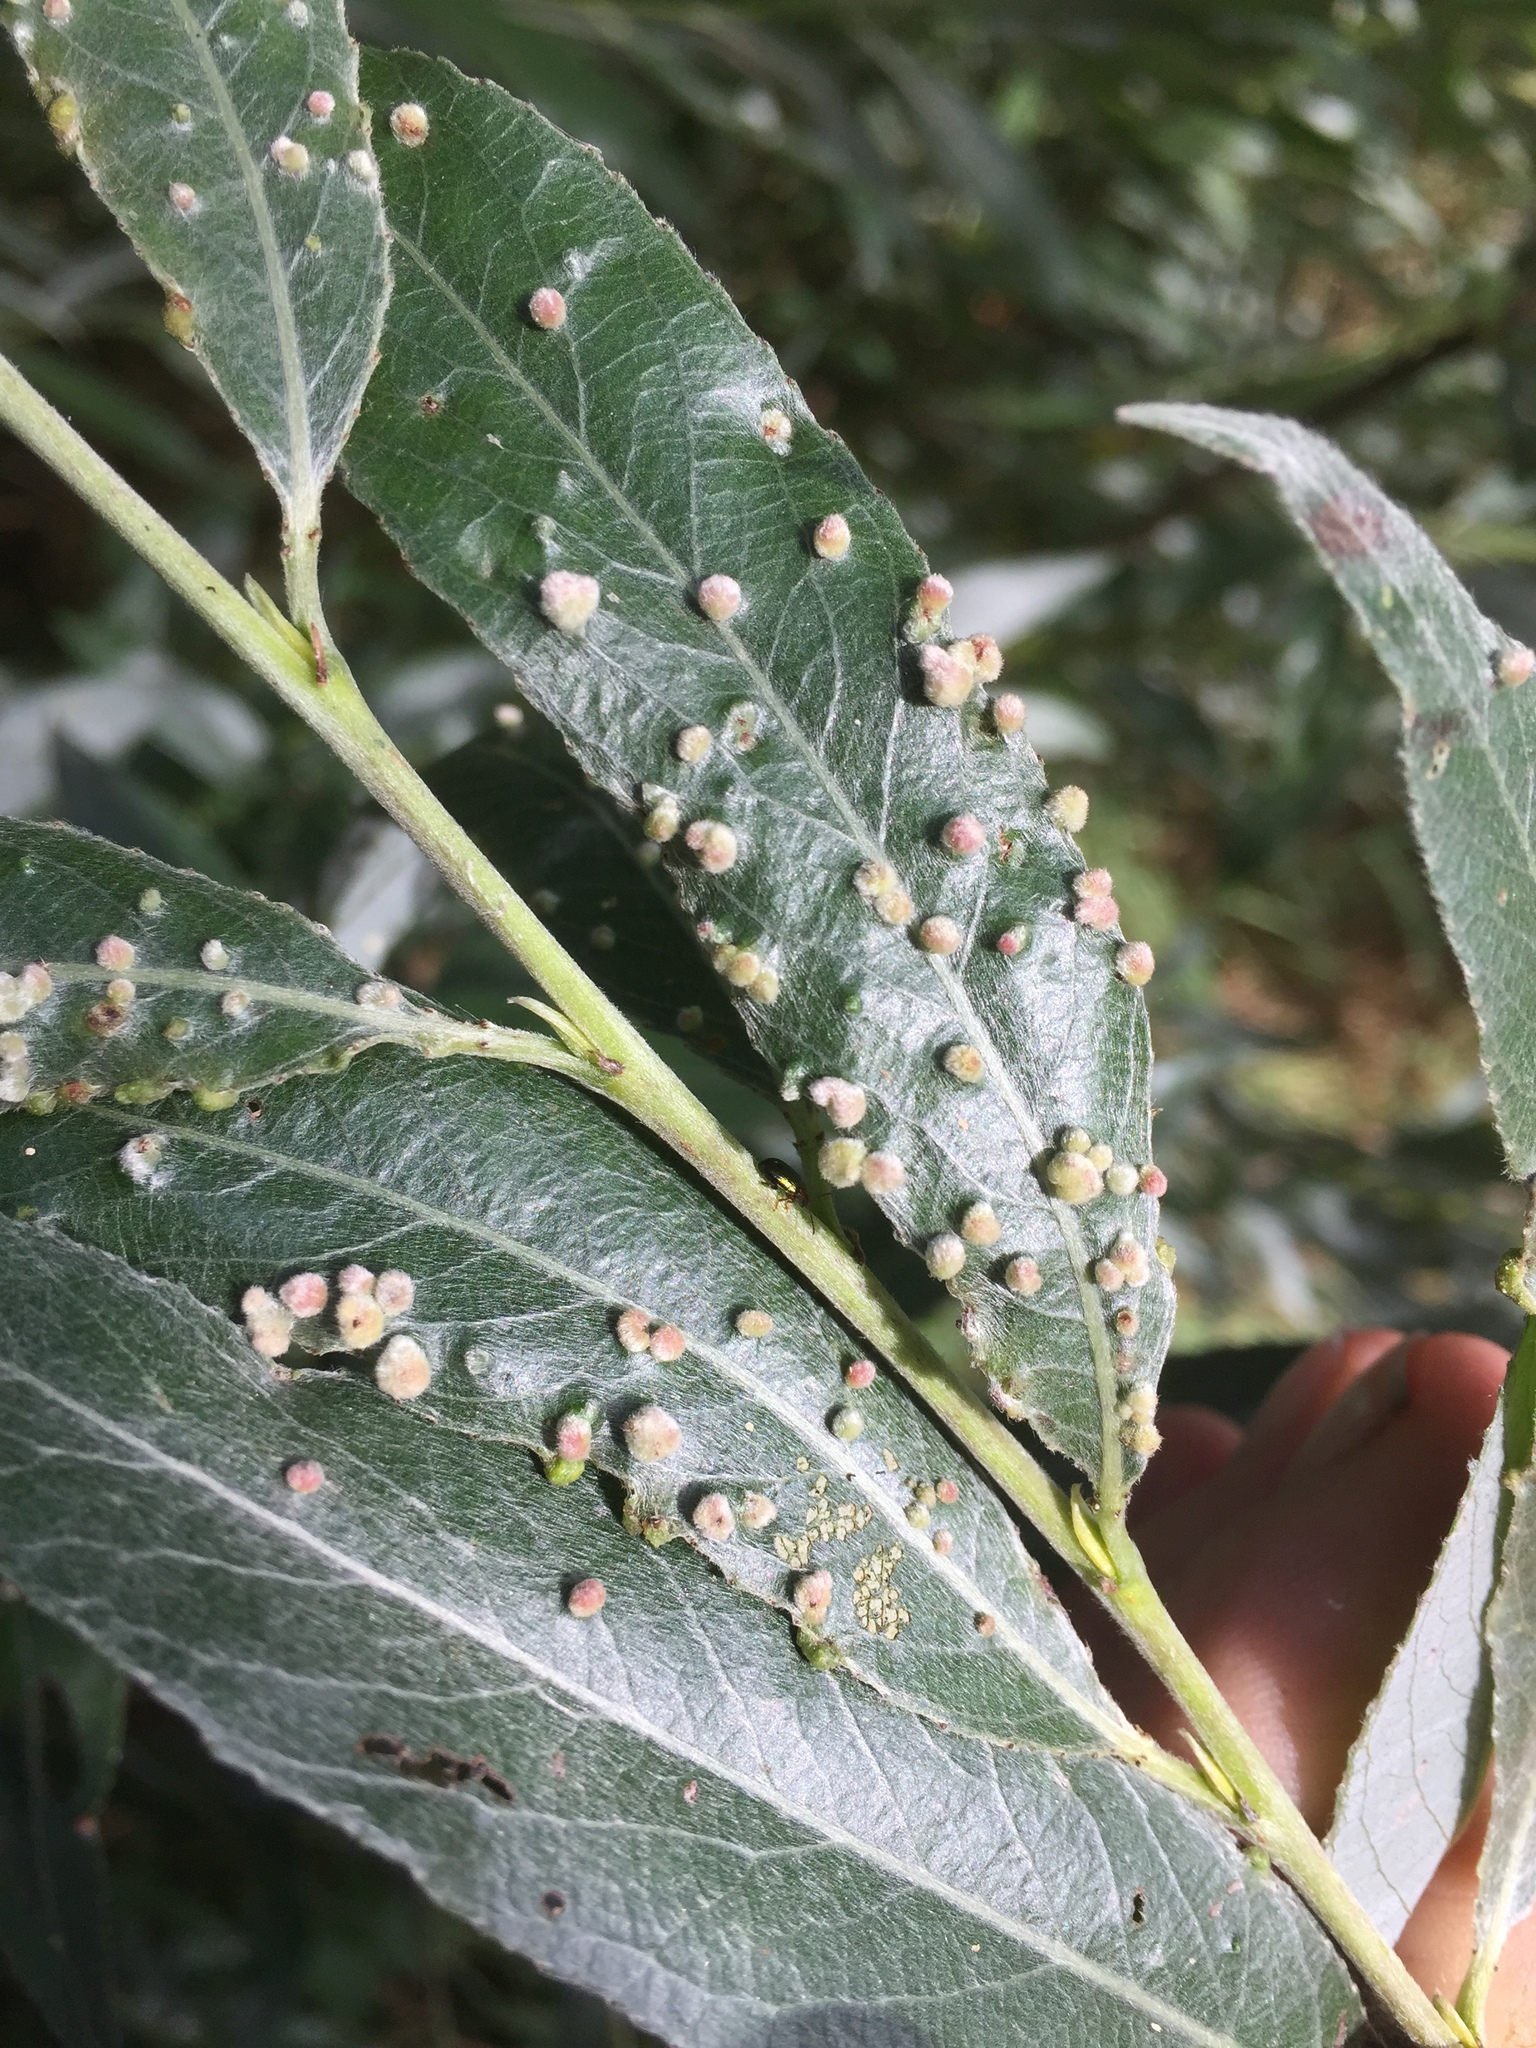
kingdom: Animalia
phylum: Arthropoda
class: Arachnida
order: Trombidiformes
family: Eriophyidae
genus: Aculus
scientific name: Aculus tetanothrix
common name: Willow bead gall mite
